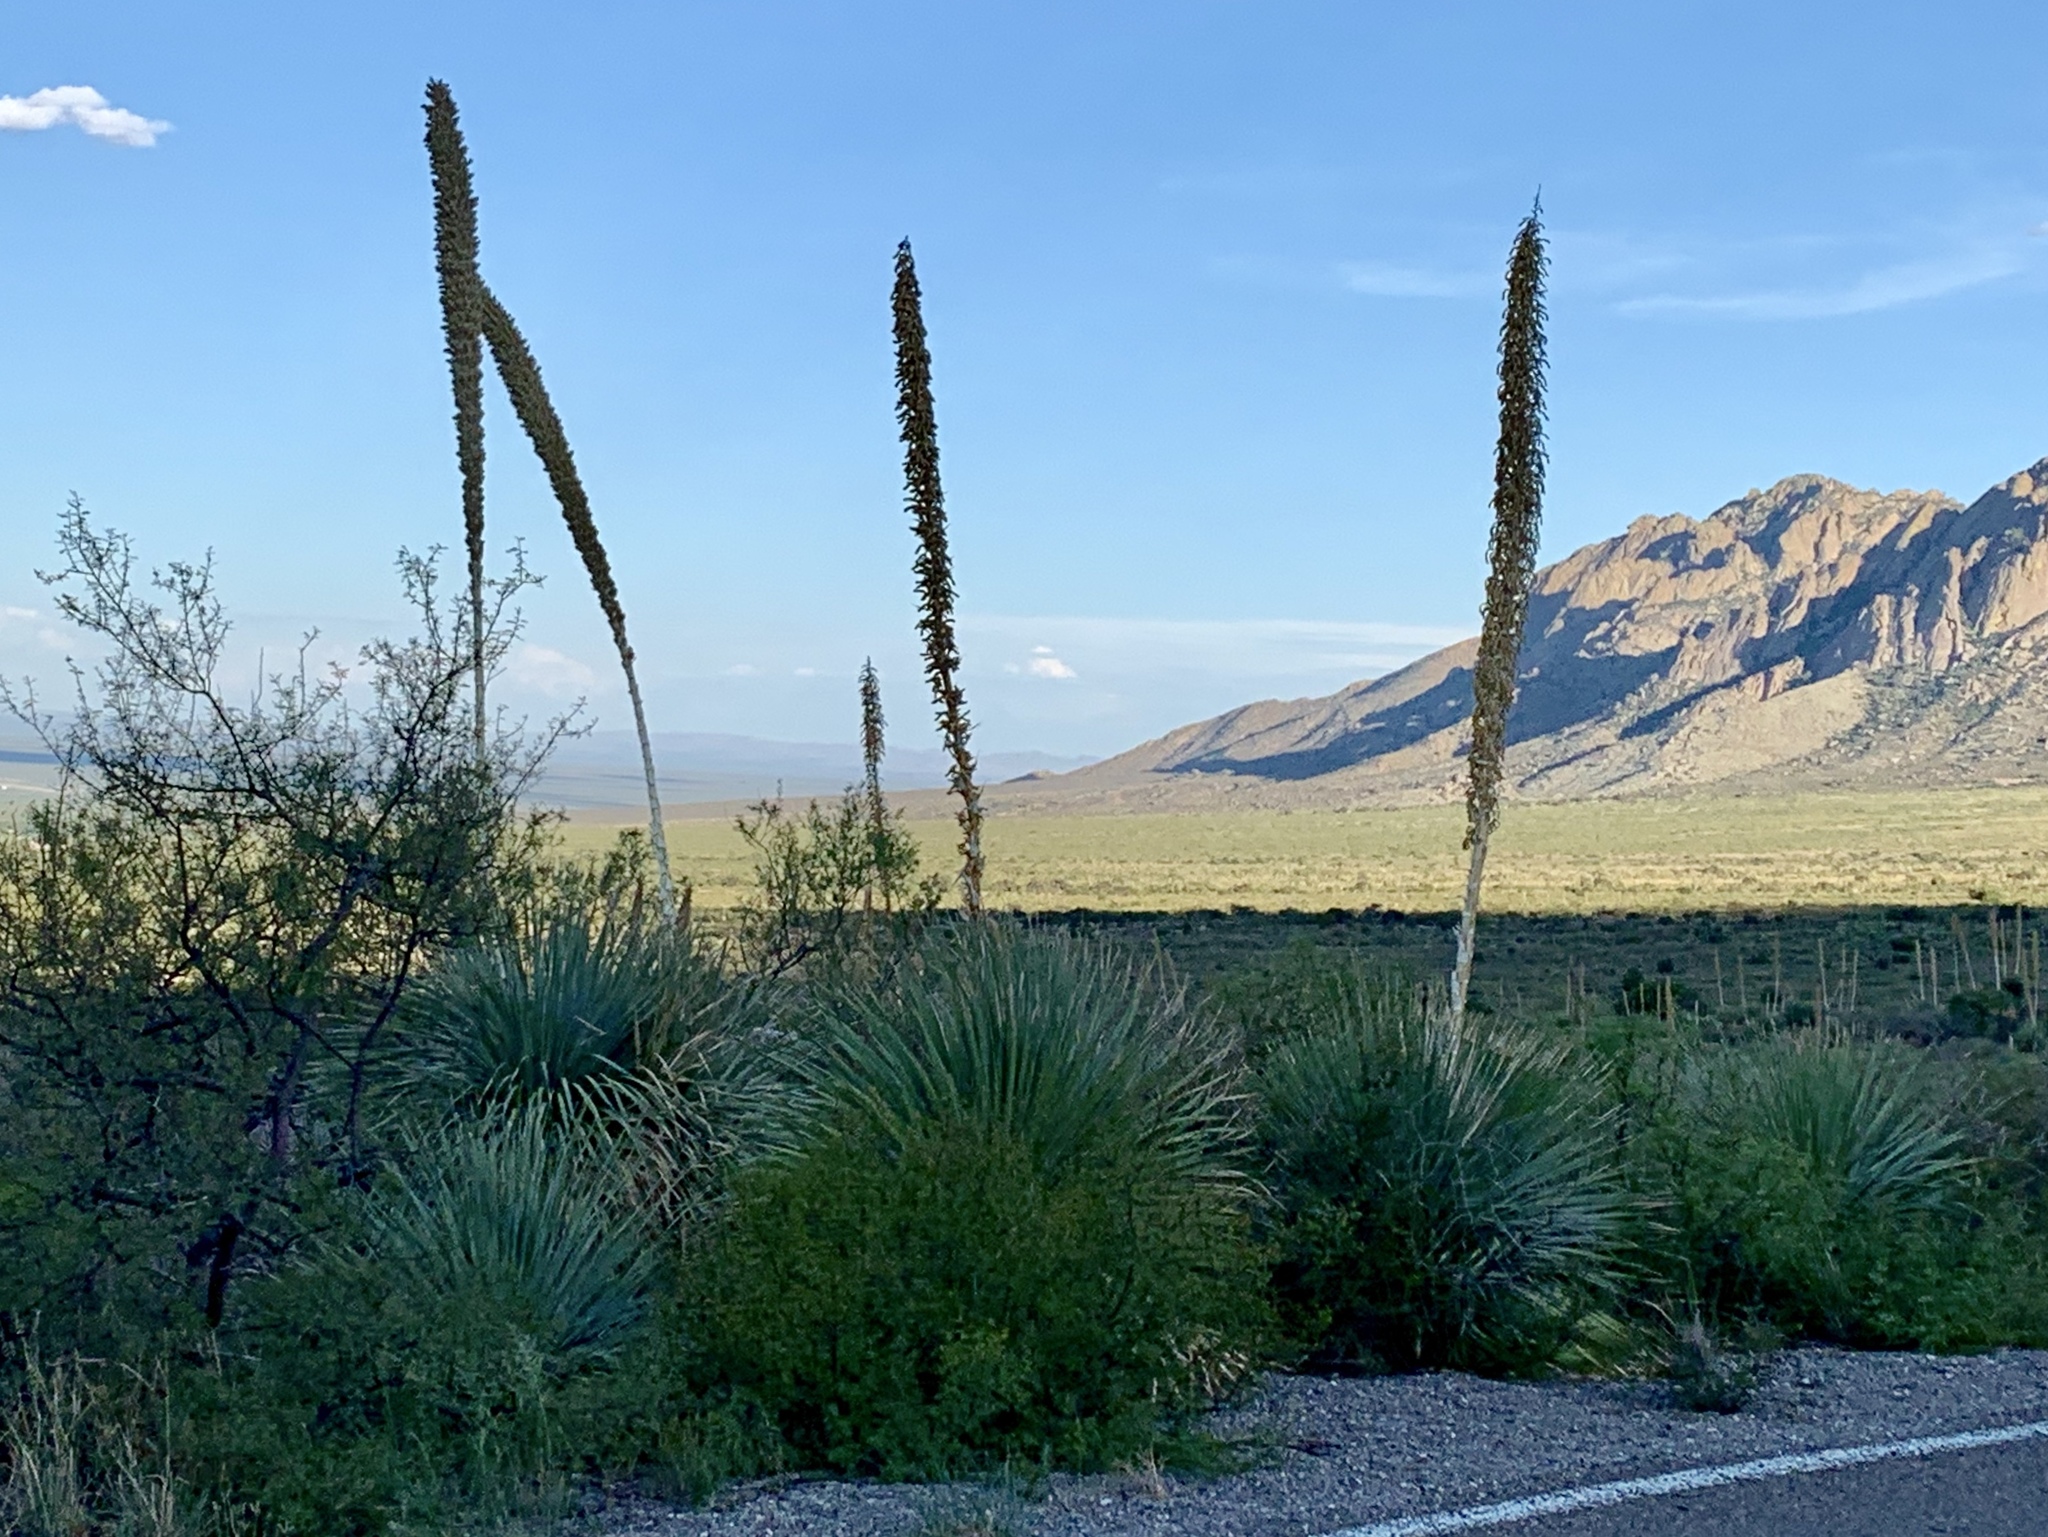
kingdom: Plantae
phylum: Tracheophyta
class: Liliopsida
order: Asparagales
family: Asparagaceae
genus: Dasylirion
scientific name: Dasylirion wheeleri
